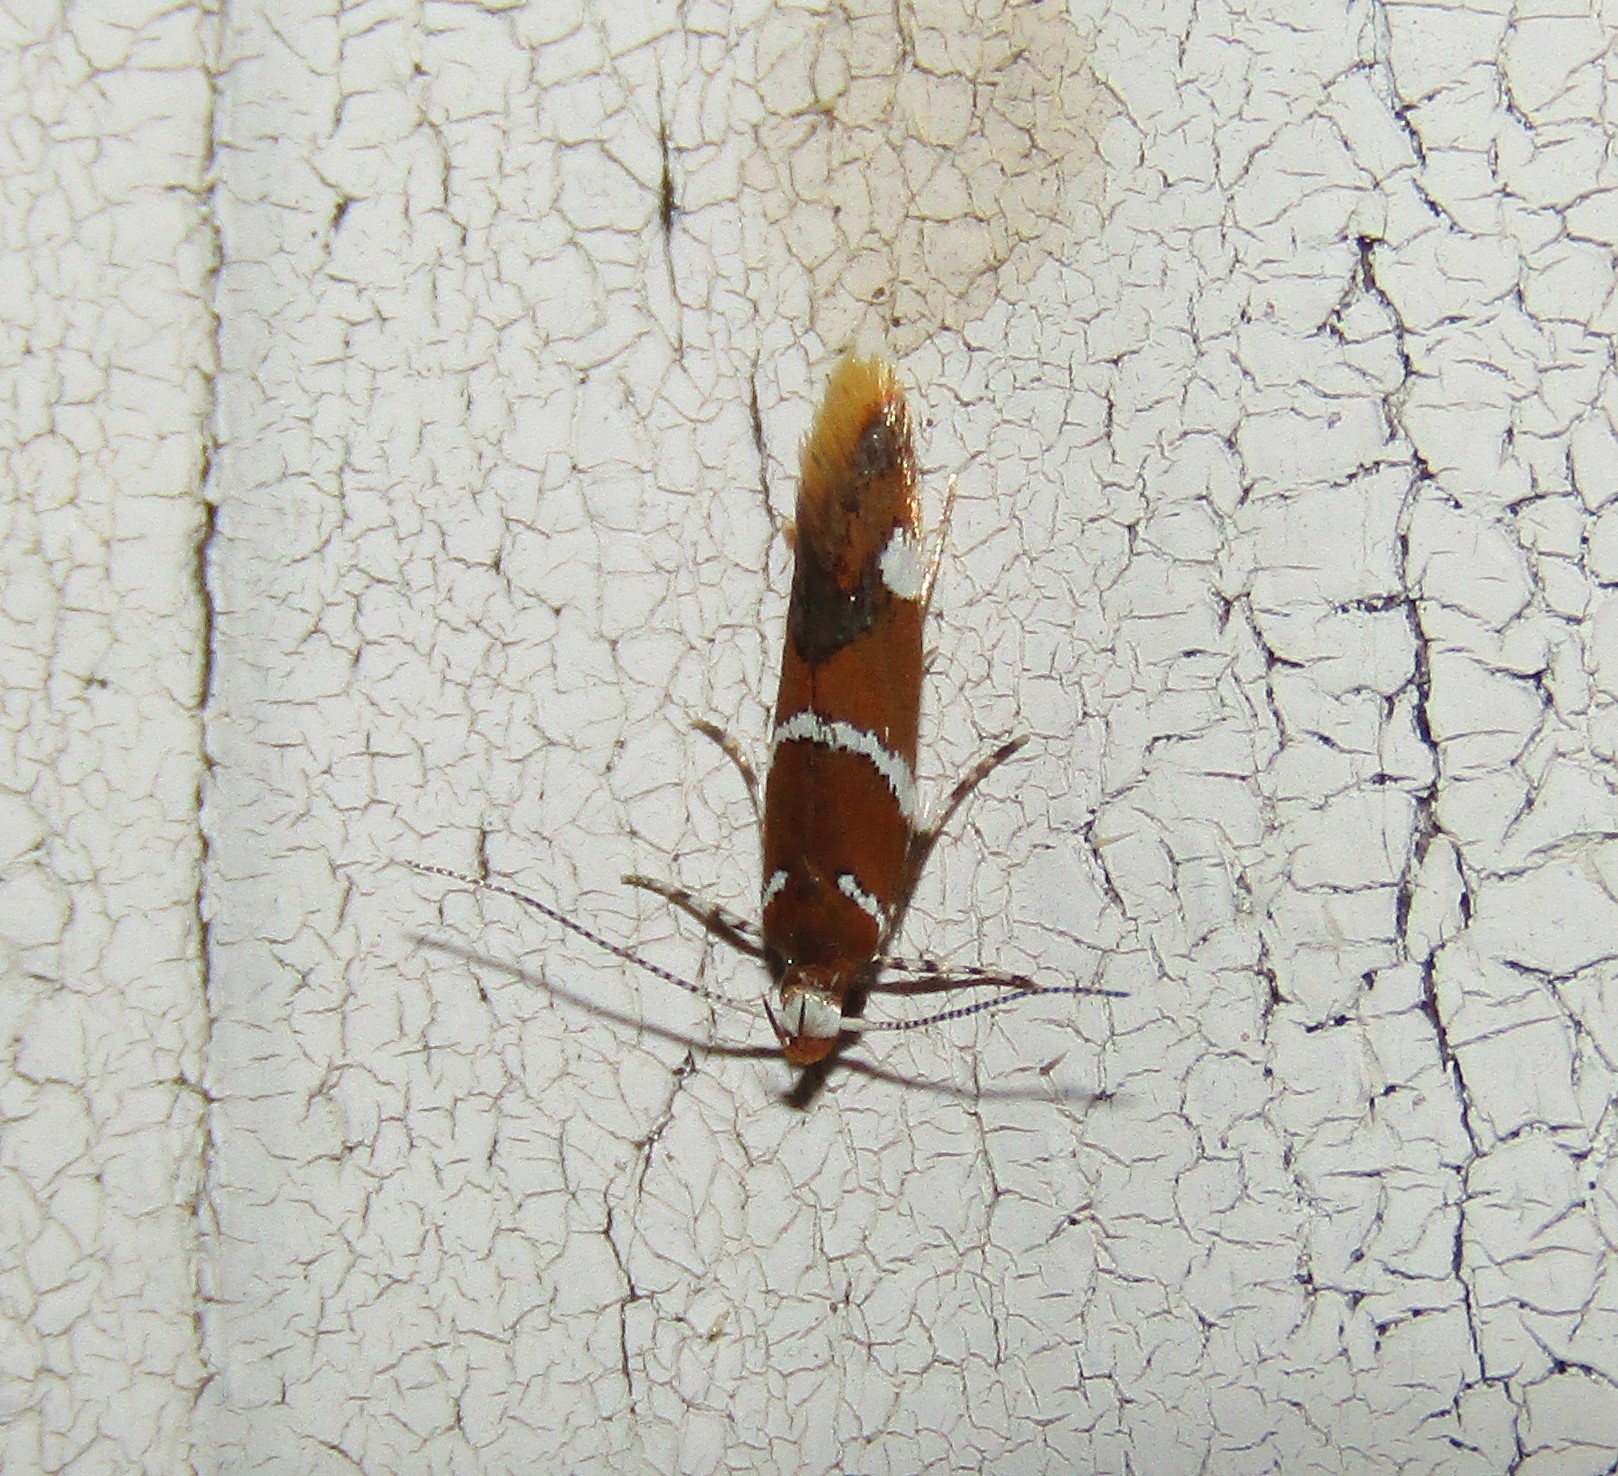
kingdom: Animalia
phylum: Arthropoda
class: Insecta
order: Lepidoptera
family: Oecophoridae
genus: Promalactis
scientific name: Promalactis suzukiella
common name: Moth
